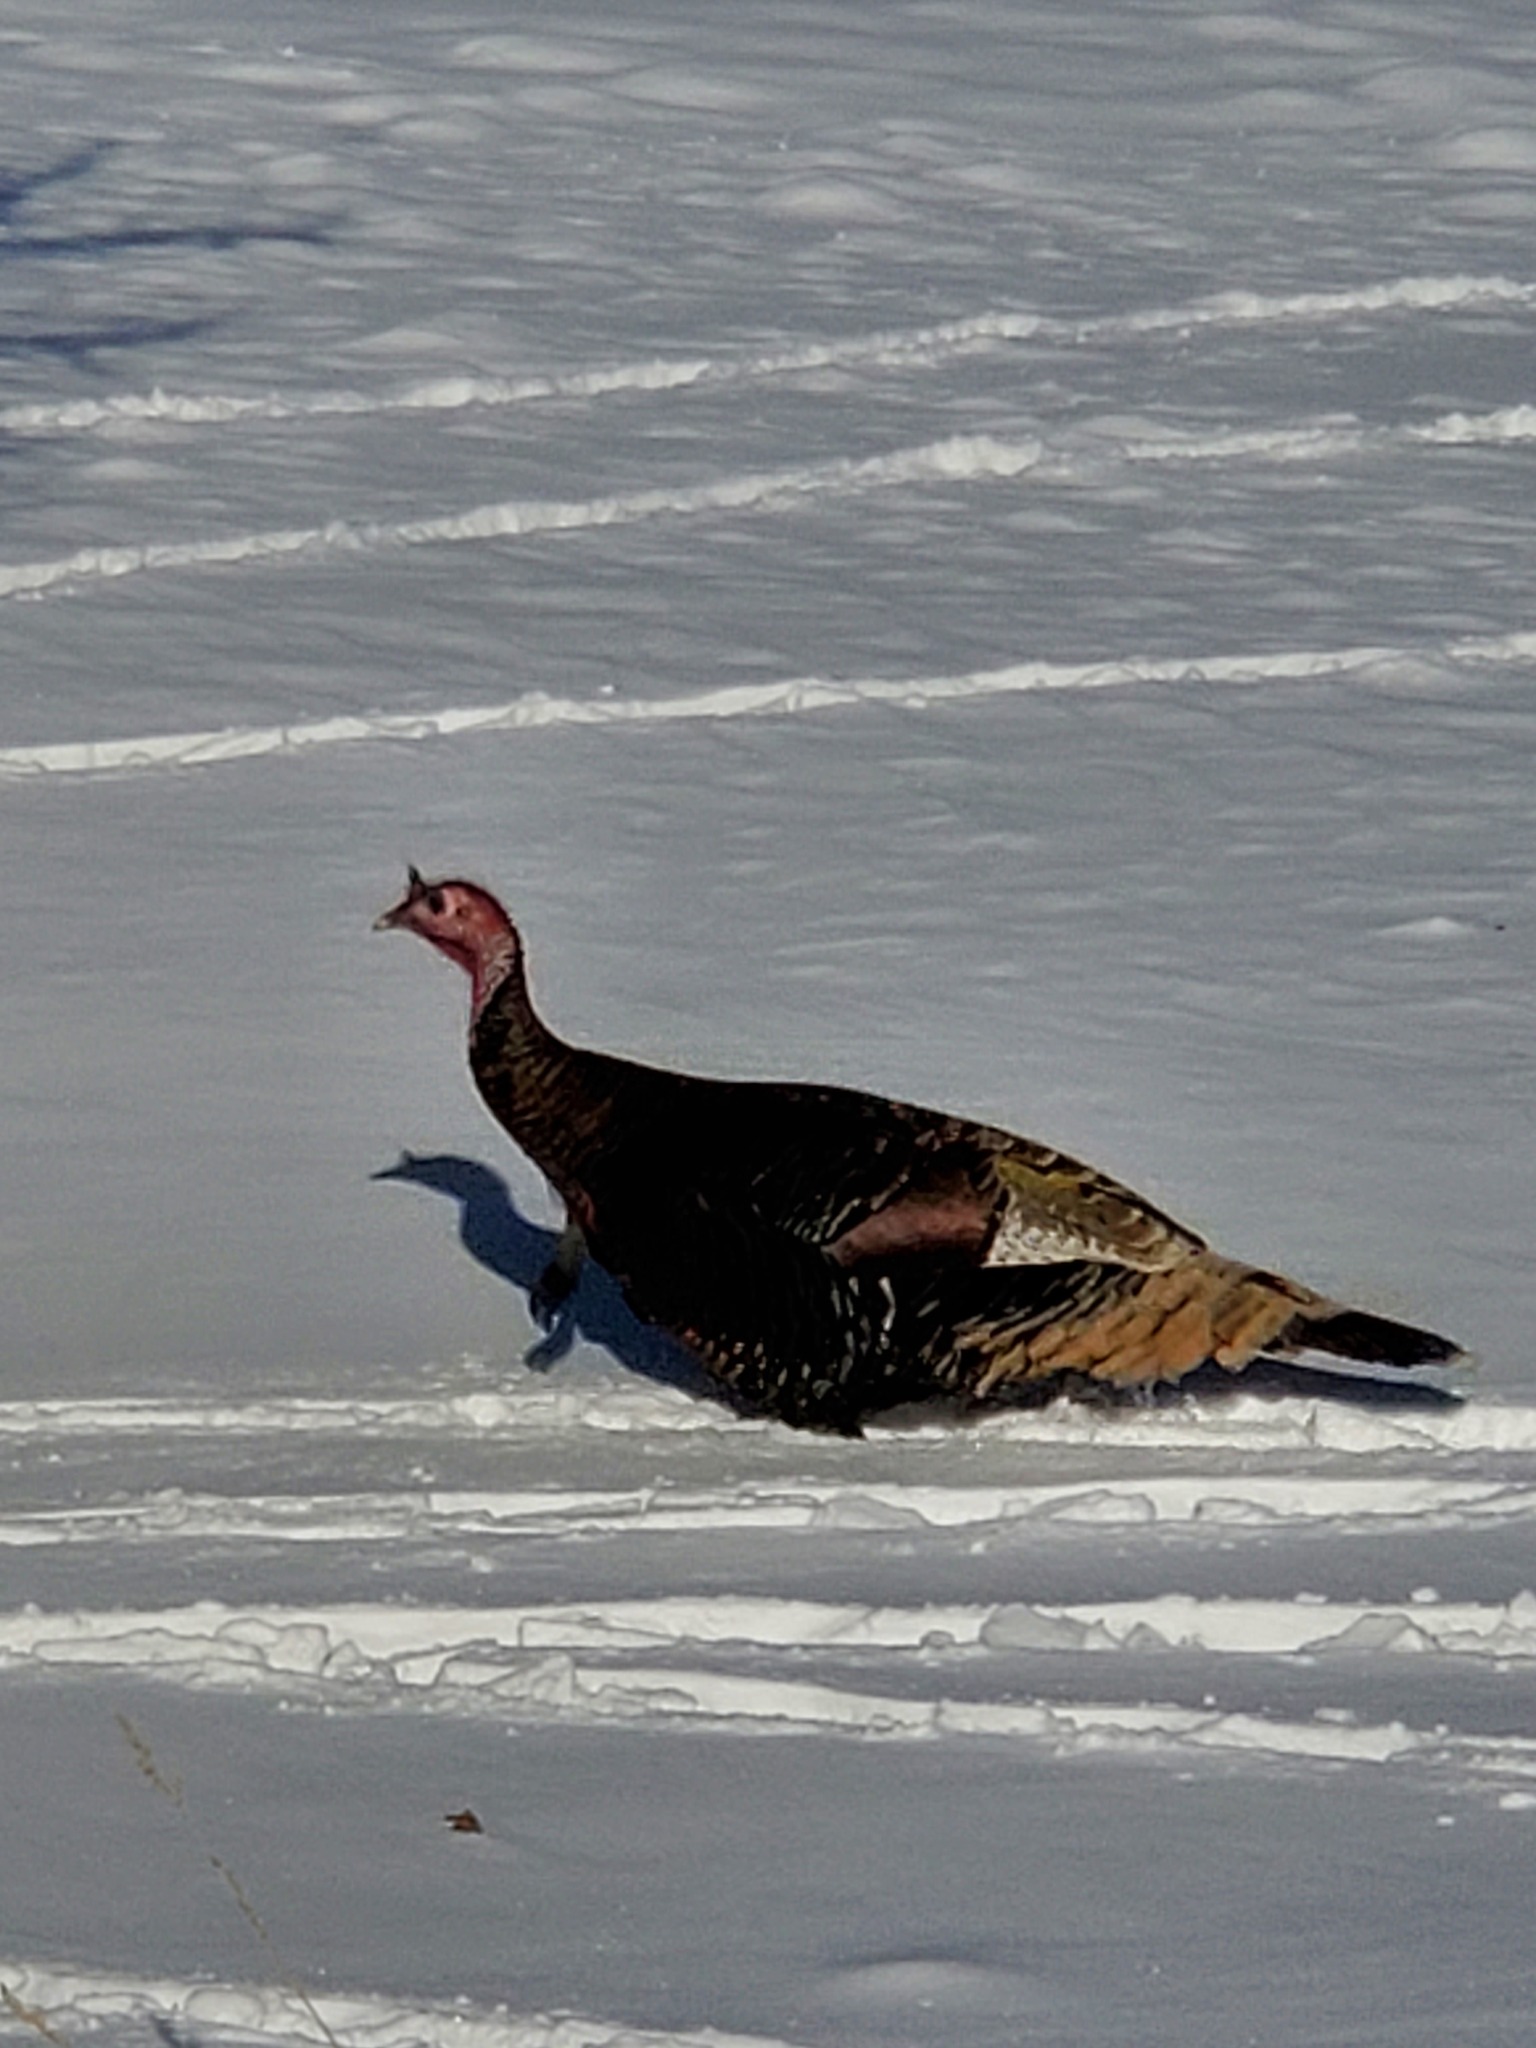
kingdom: Animalia
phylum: Chordata
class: Aves
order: Galliformes
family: Phasianidae
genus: Meleagris
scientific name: Meleagris gallopavo
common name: Wild turkey
